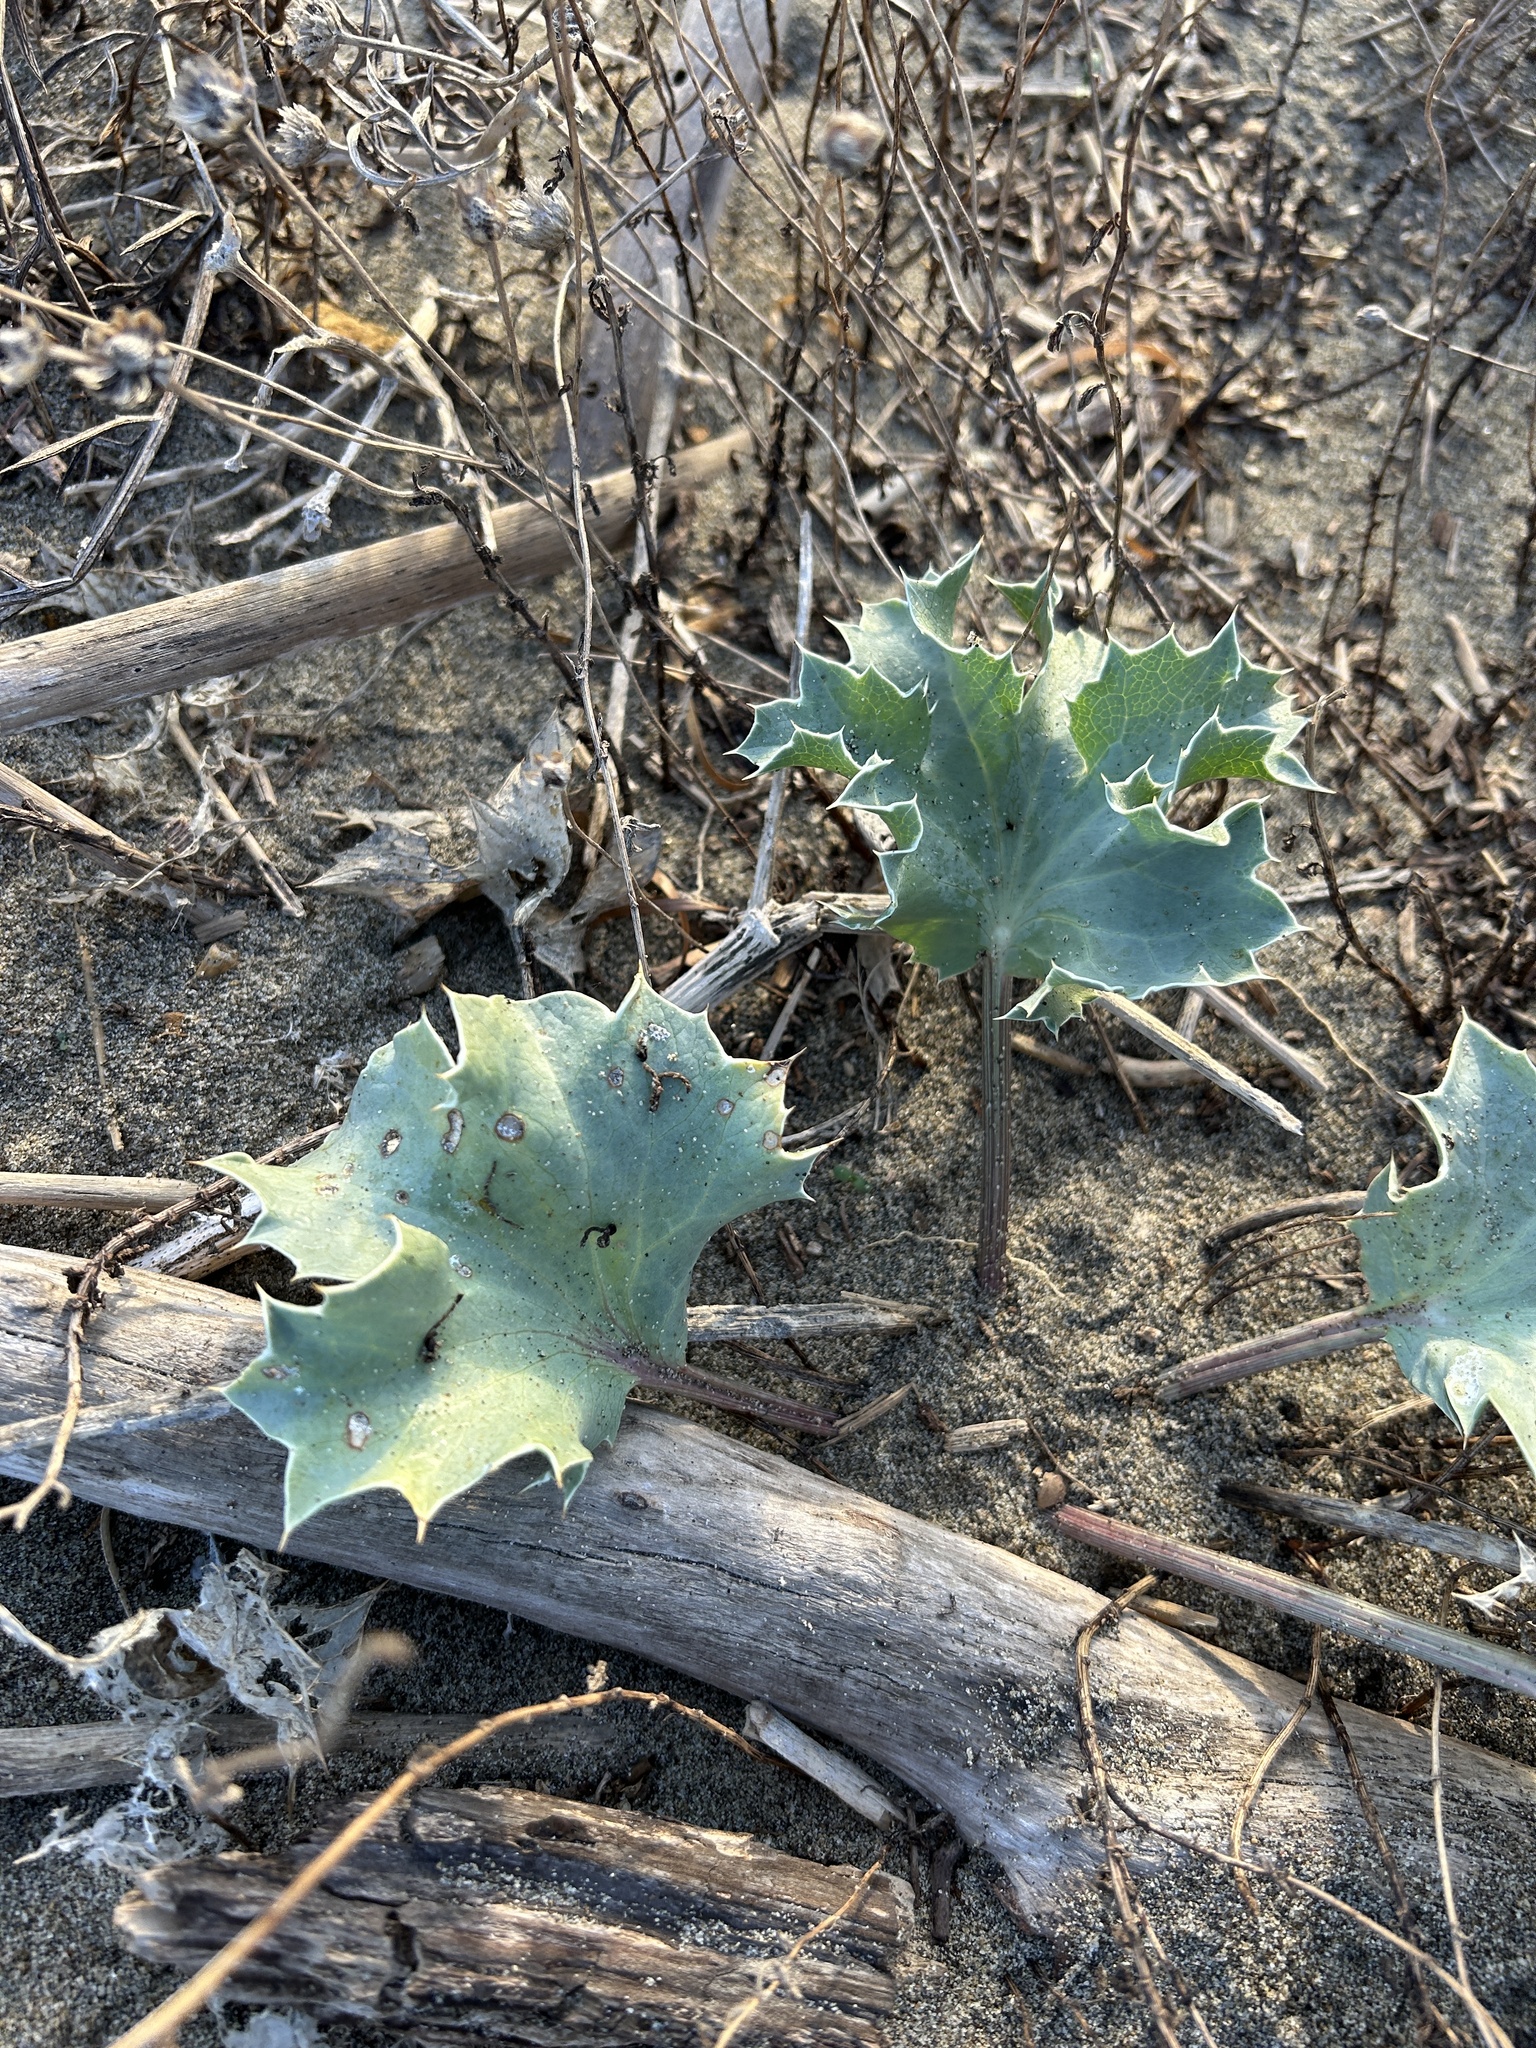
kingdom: Plantae
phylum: Tracheophyta
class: Magnoliopsida
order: Apiales
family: Apiaceae
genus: Eryngium
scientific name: Eryngium maritimum
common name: Sea-holly
